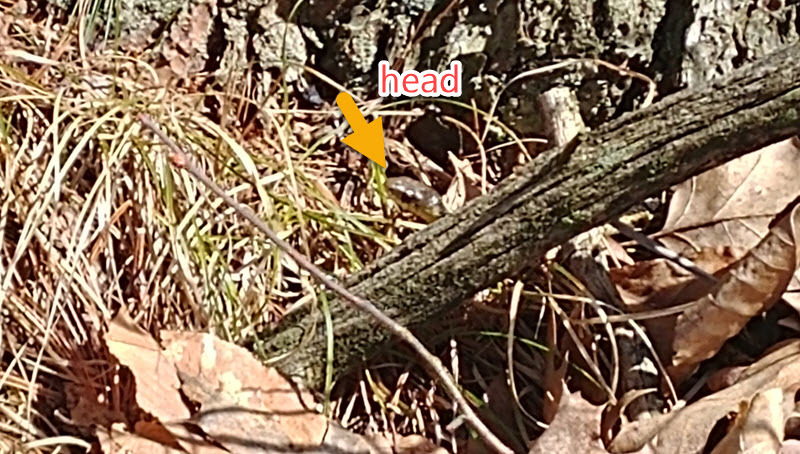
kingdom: Animalia
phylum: Chordata
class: Squamata
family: Colubridae
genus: Thamnophis
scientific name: Thamnophis sirtalis
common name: Common garter snake
